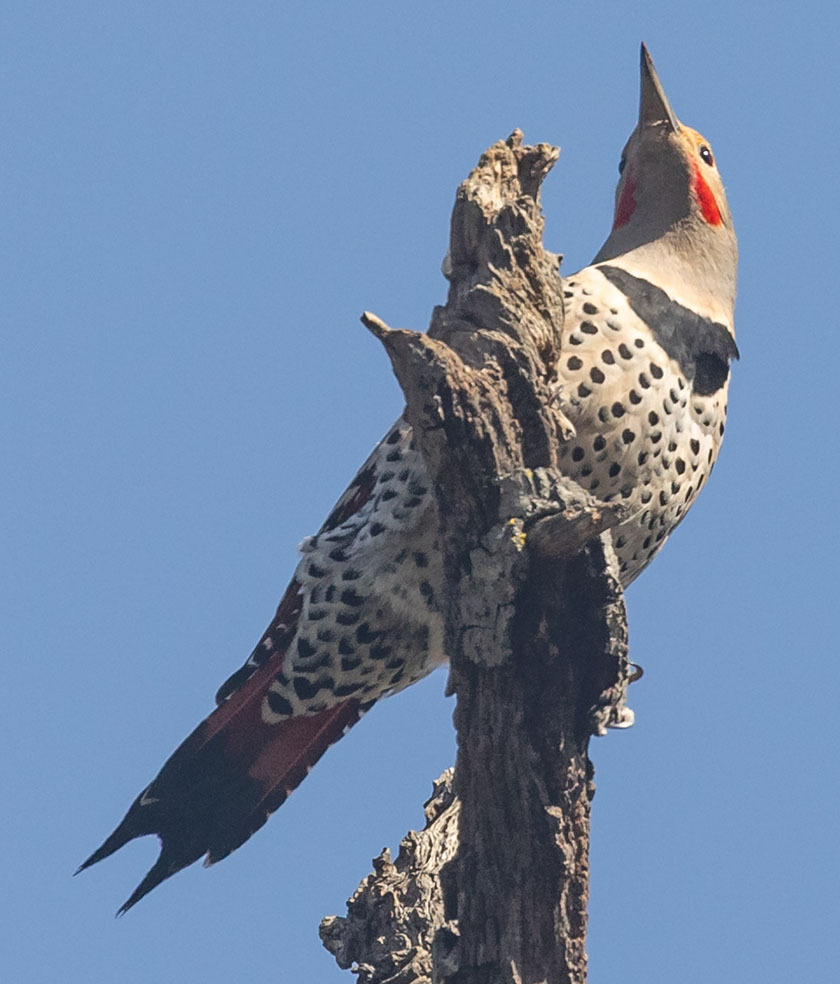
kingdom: Animalia
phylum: Chordata
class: Aves
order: Piciformes
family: Picidae
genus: Colaptes
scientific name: Colaptes auratus
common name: Northern flicker
